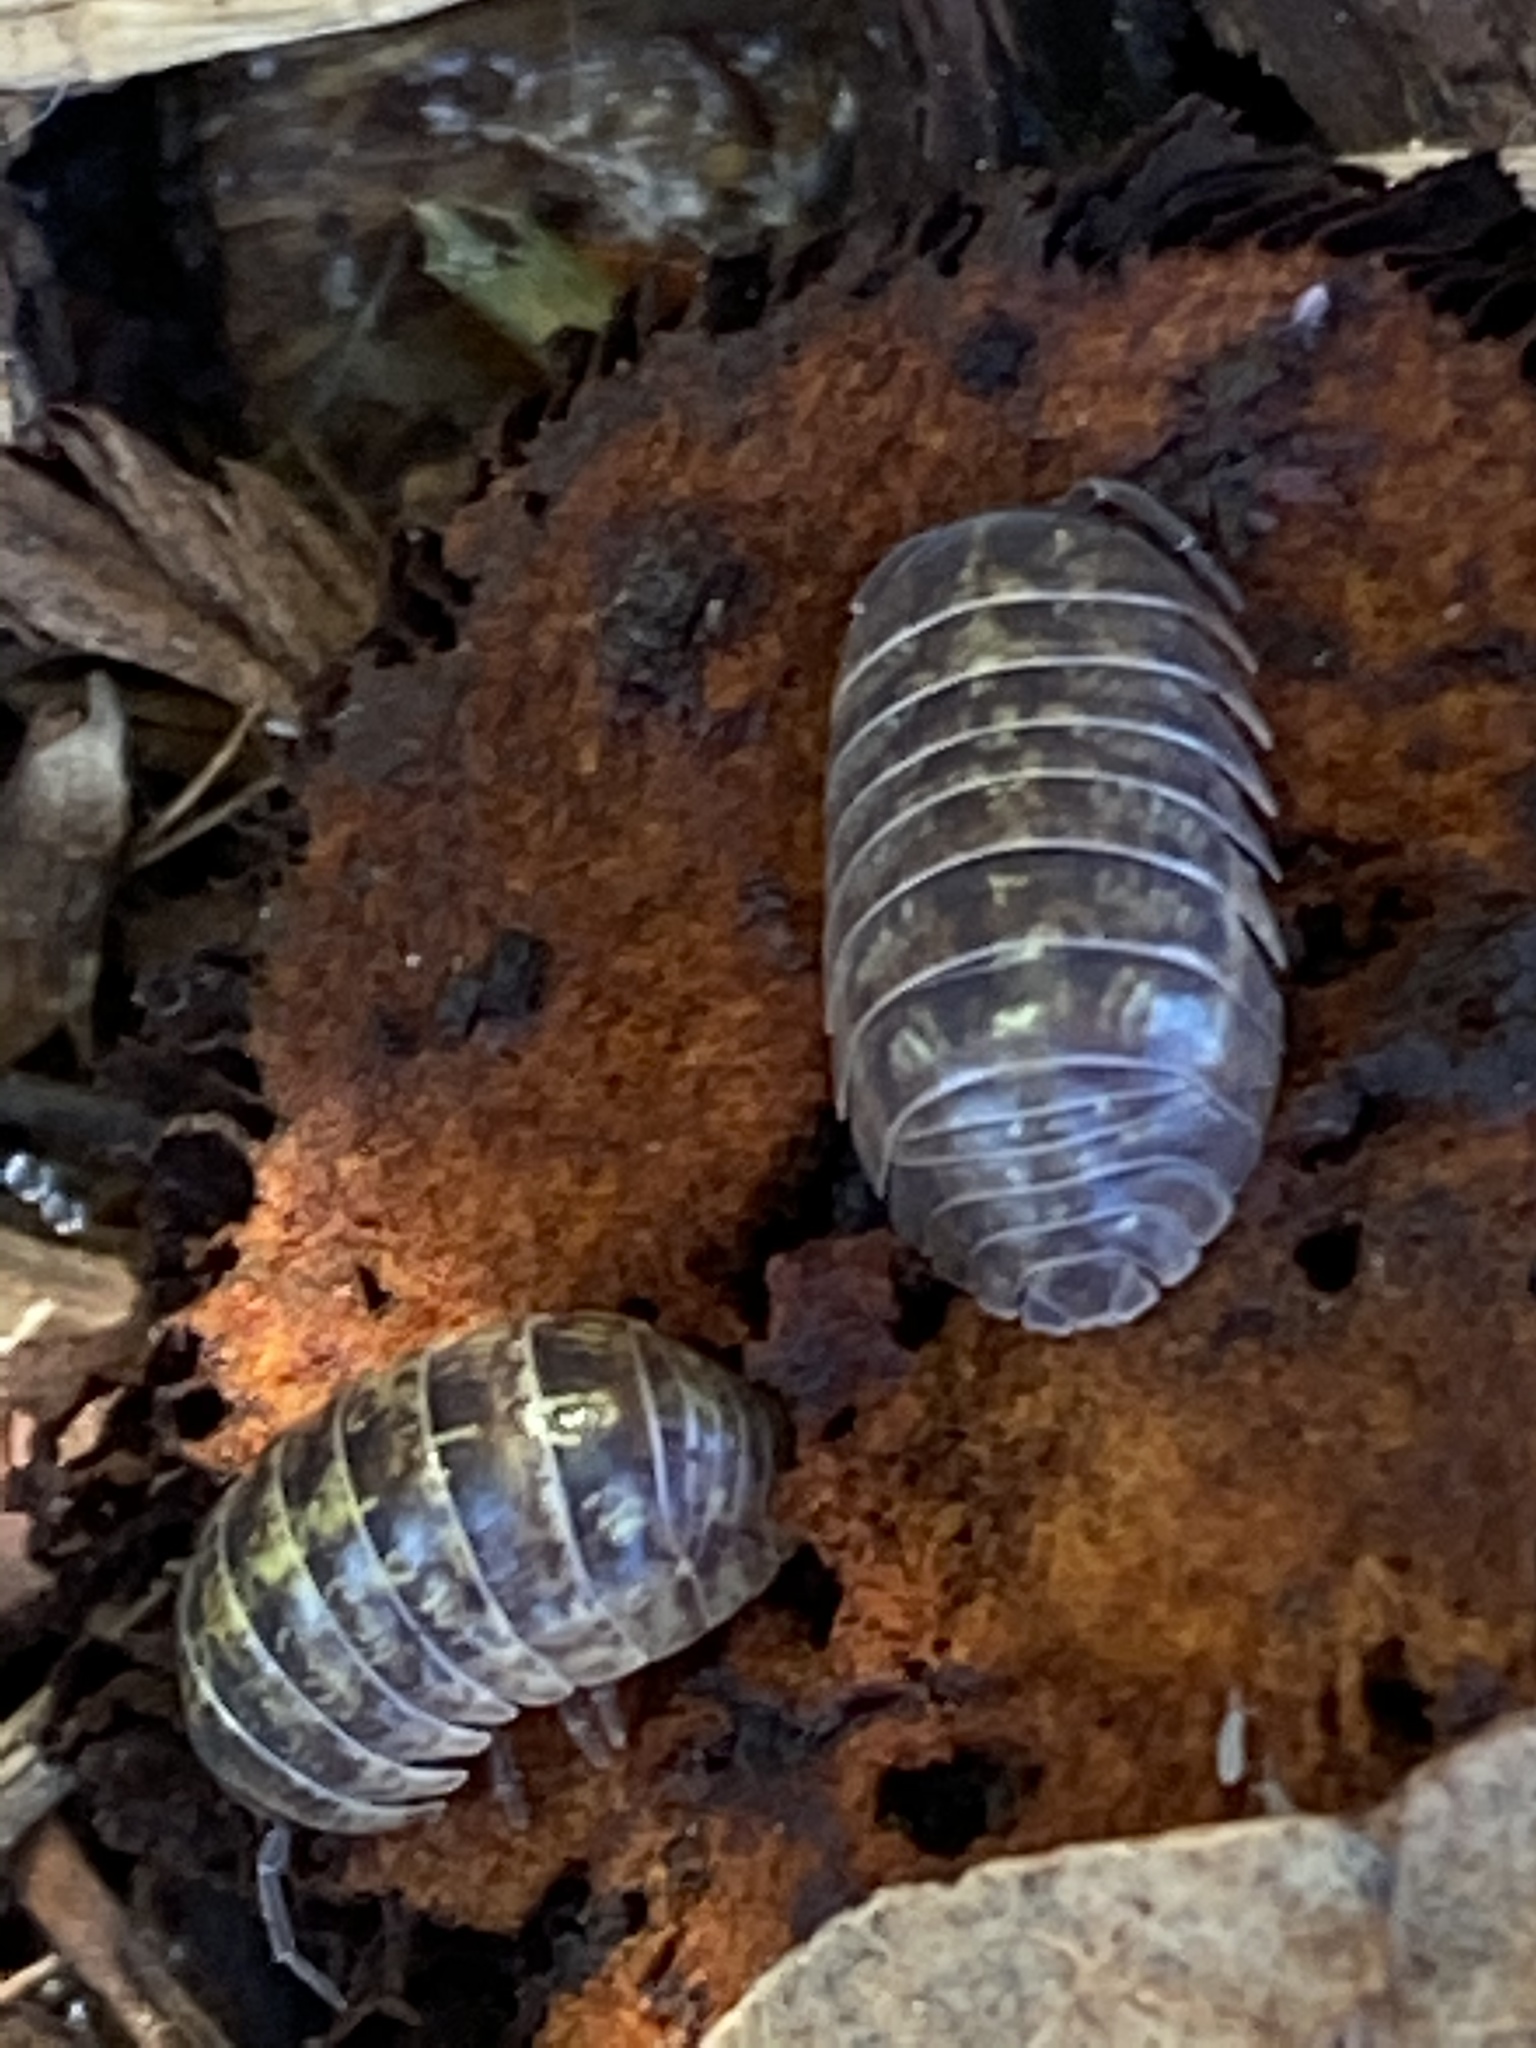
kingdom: Animalia
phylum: Arthropoda
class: Malacostraca
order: Isopoda
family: Armadillidiidae
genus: Armadillidium
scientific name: Armadillidium vulgare
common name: Common pill woodlouse
